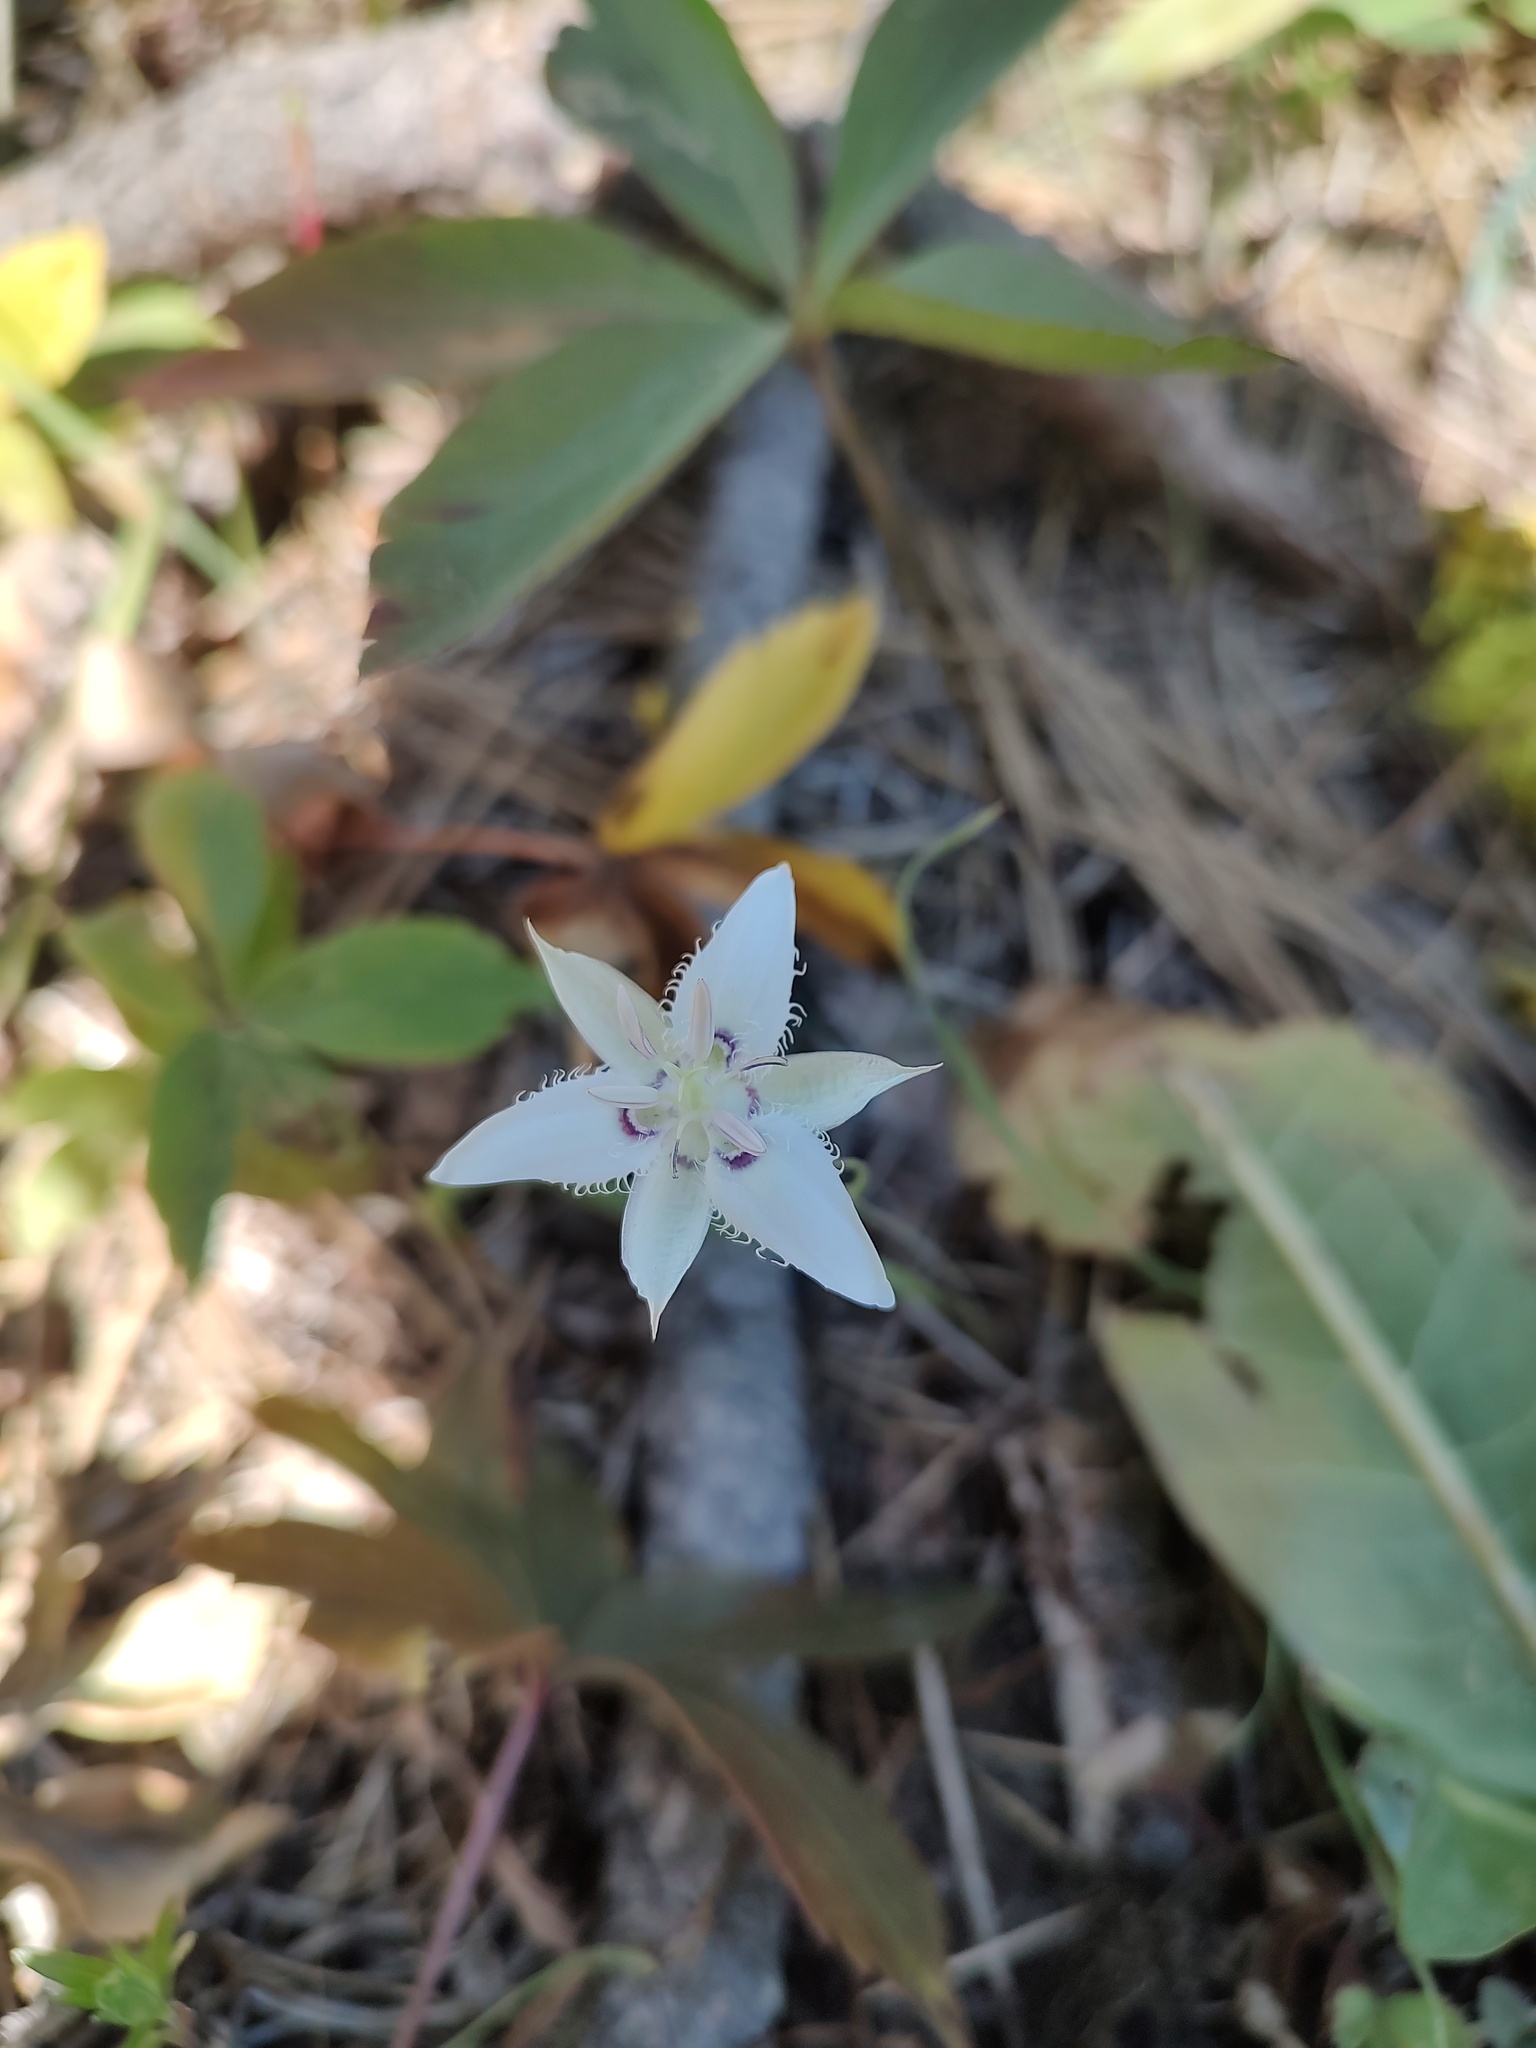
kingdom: Plantae
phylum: Tracheophyta
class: Liliopsida
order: Liliales
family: Liliaceae
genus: Calochortus
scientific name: Calochortus lyallii
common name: Lyall's mariposa lily
